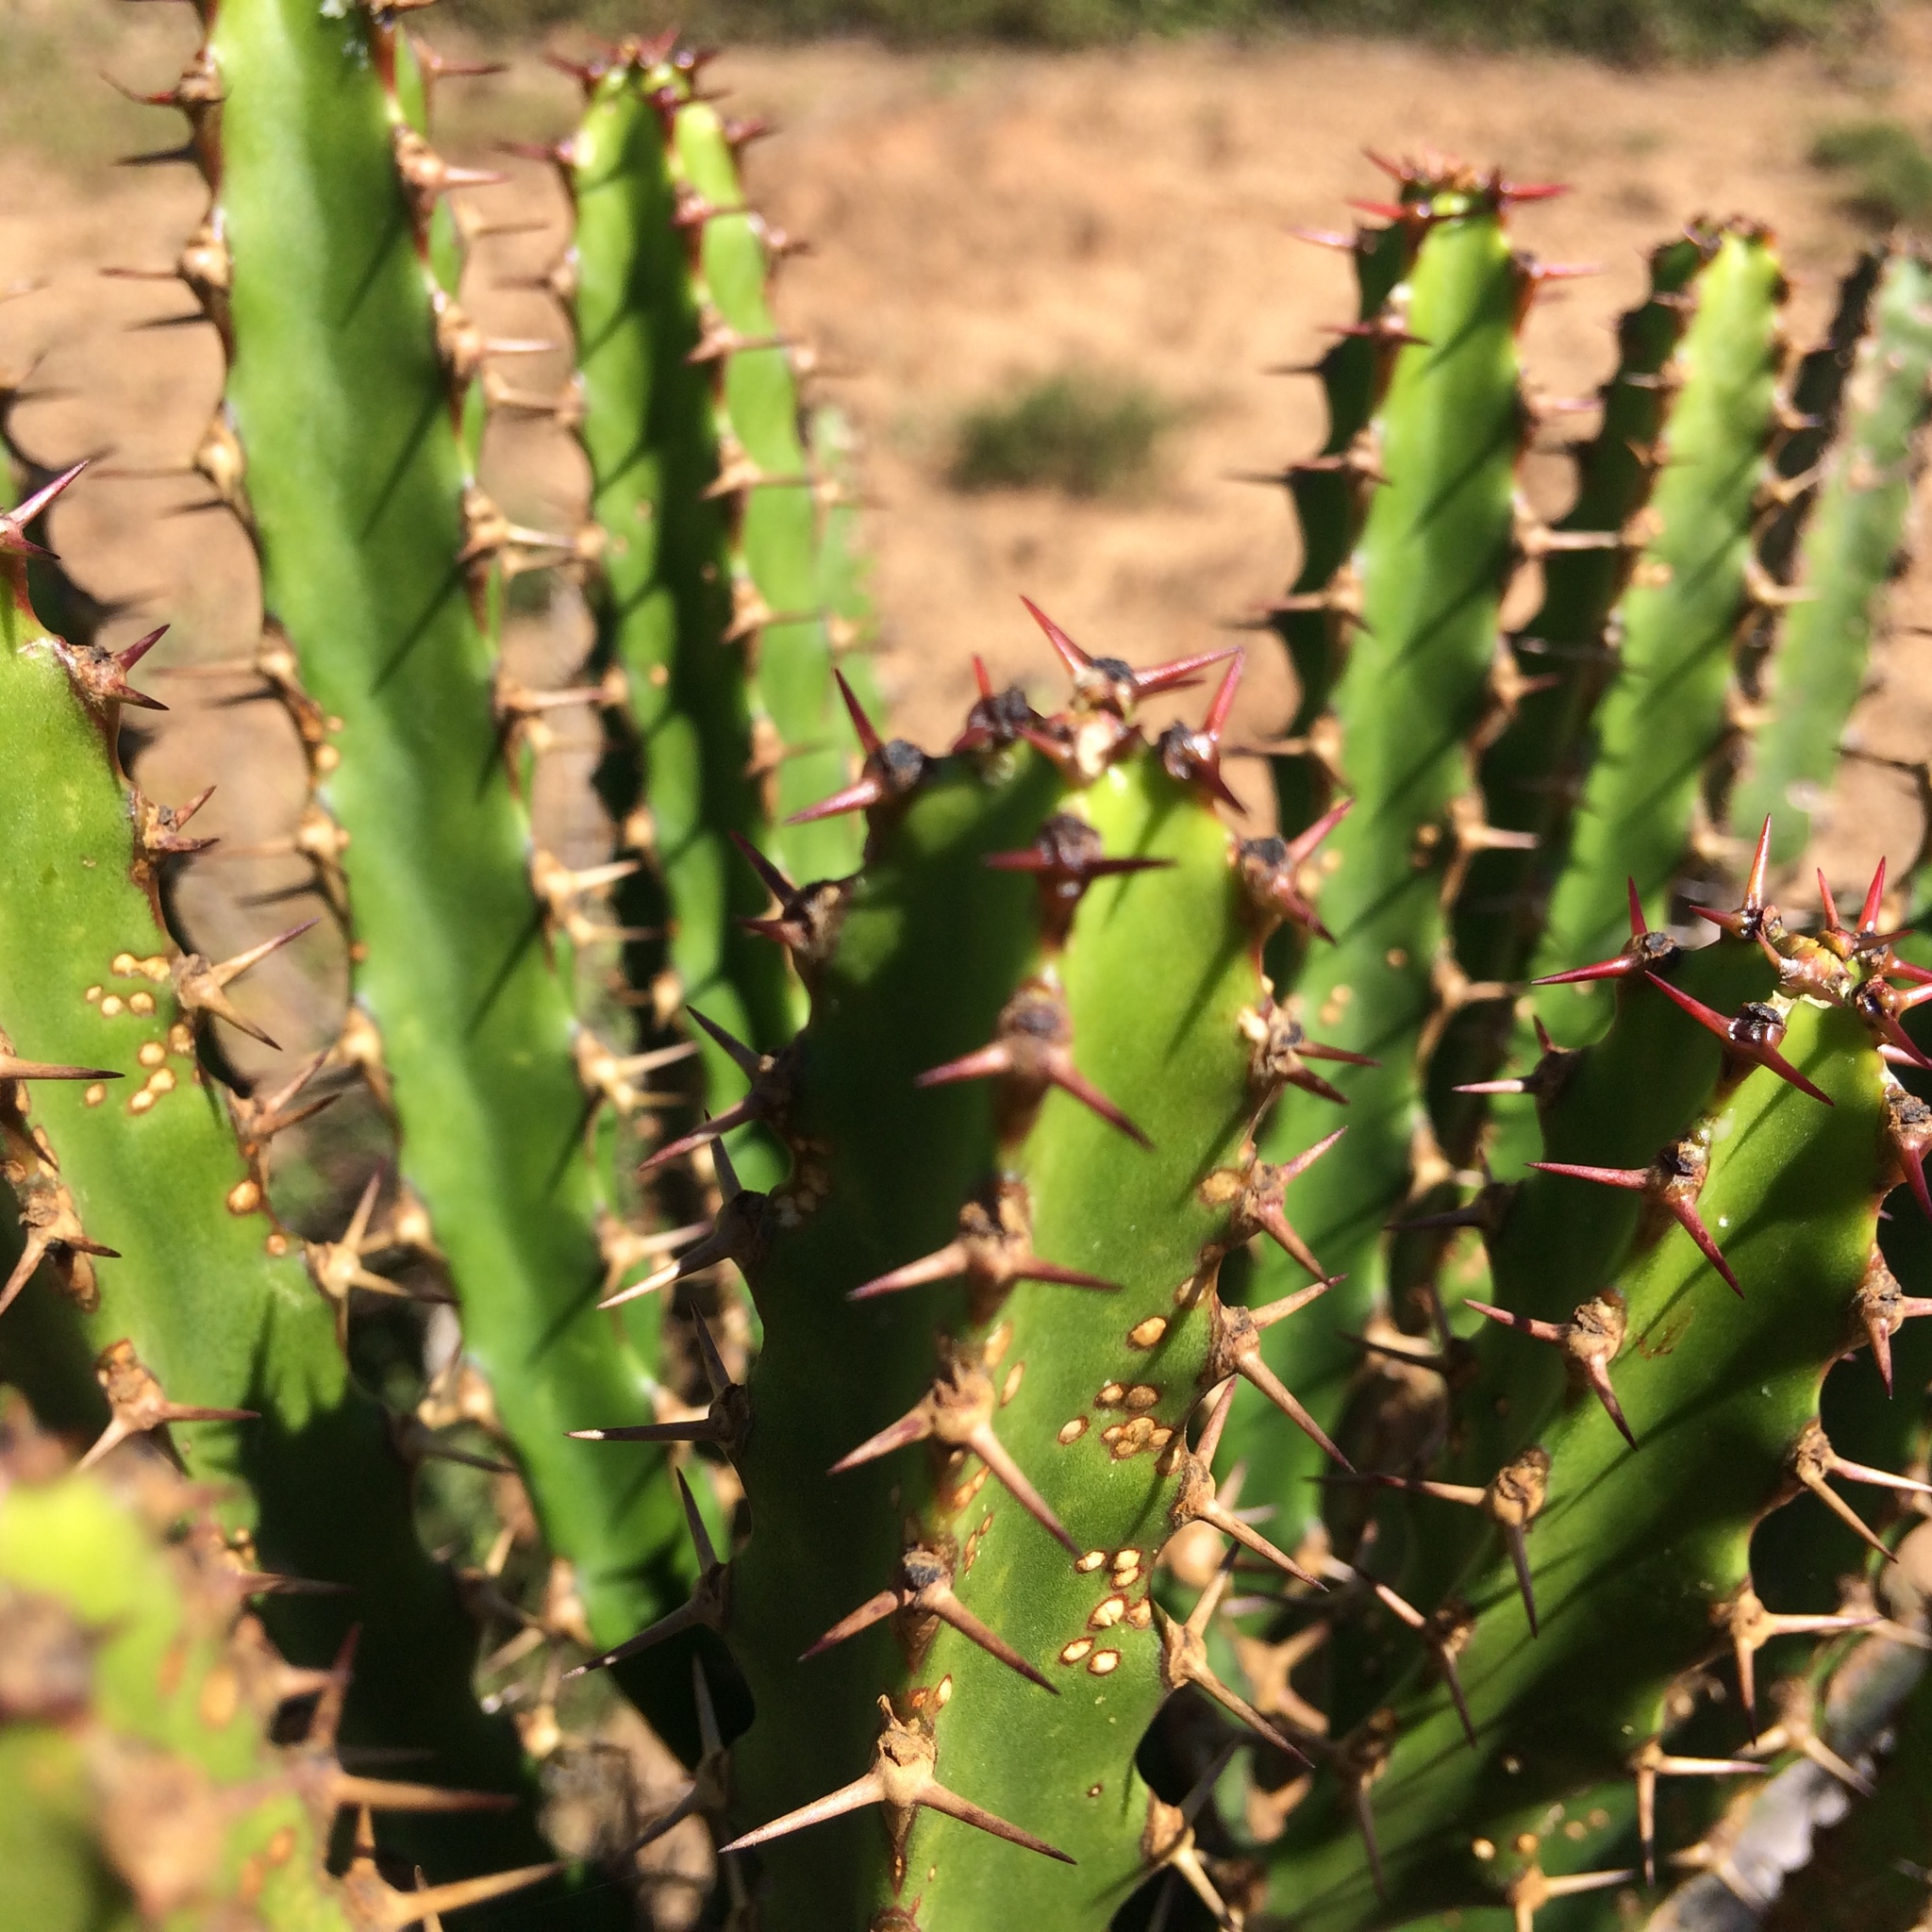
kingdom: Plantae
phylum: Tracheophyta
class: Magnoliopsida
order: Malpighiales
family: Euphorbiaceae
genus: Euphorbia
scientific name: Euphorbia tetragona
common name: Honey euphorbia
